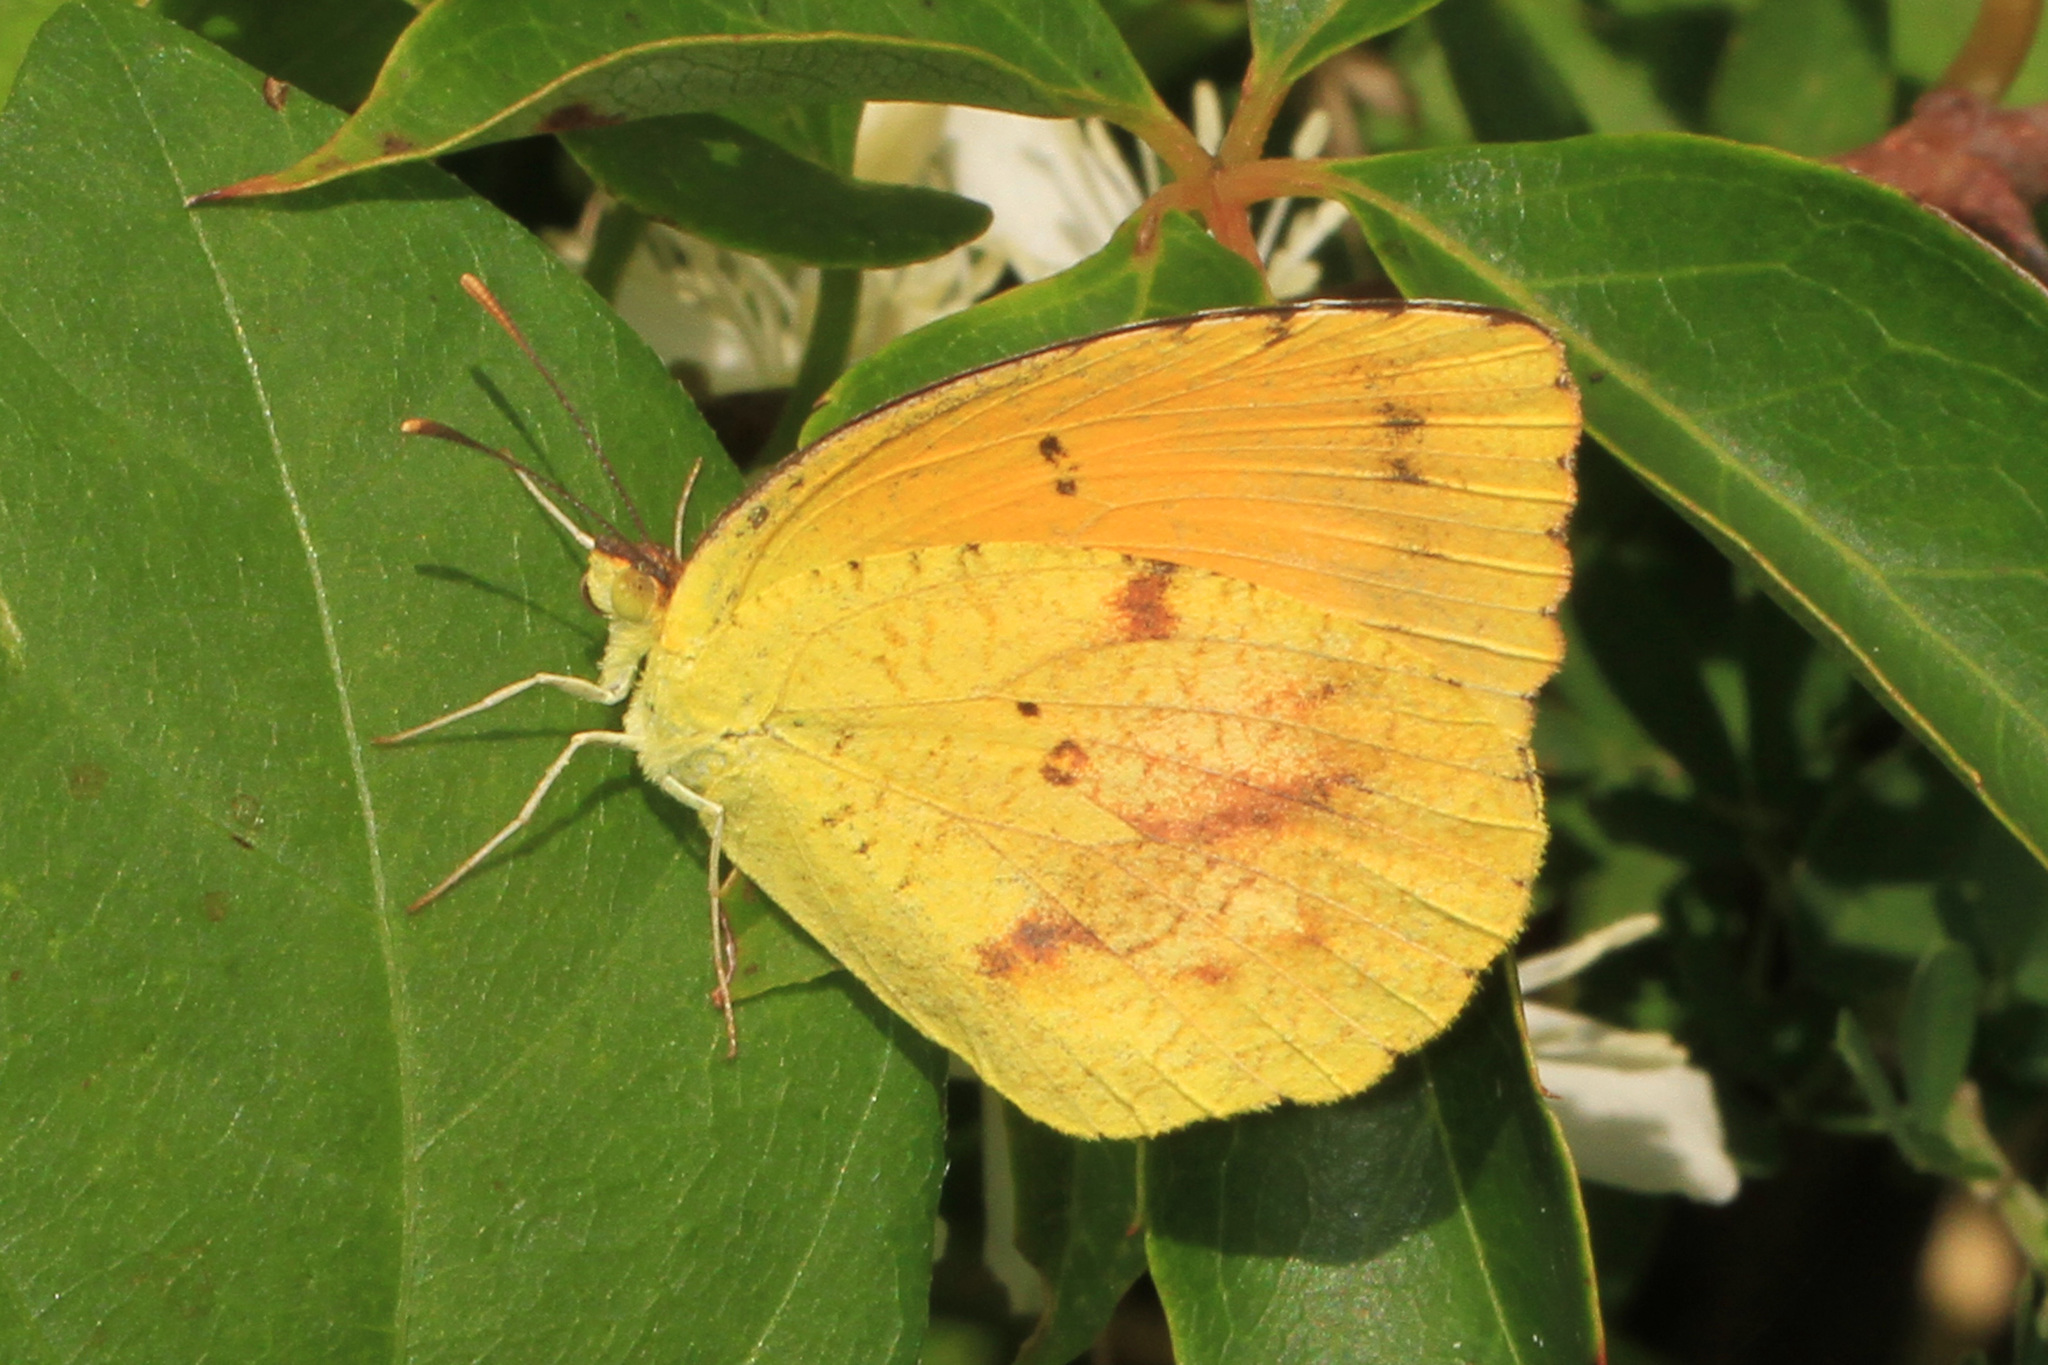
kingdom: Animalia
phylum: Arthropoda
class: Insecta
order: Lepidoptera
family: Pieridae
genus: Abaeis
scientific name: Abaeis nicippe
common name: Sleepy orange
